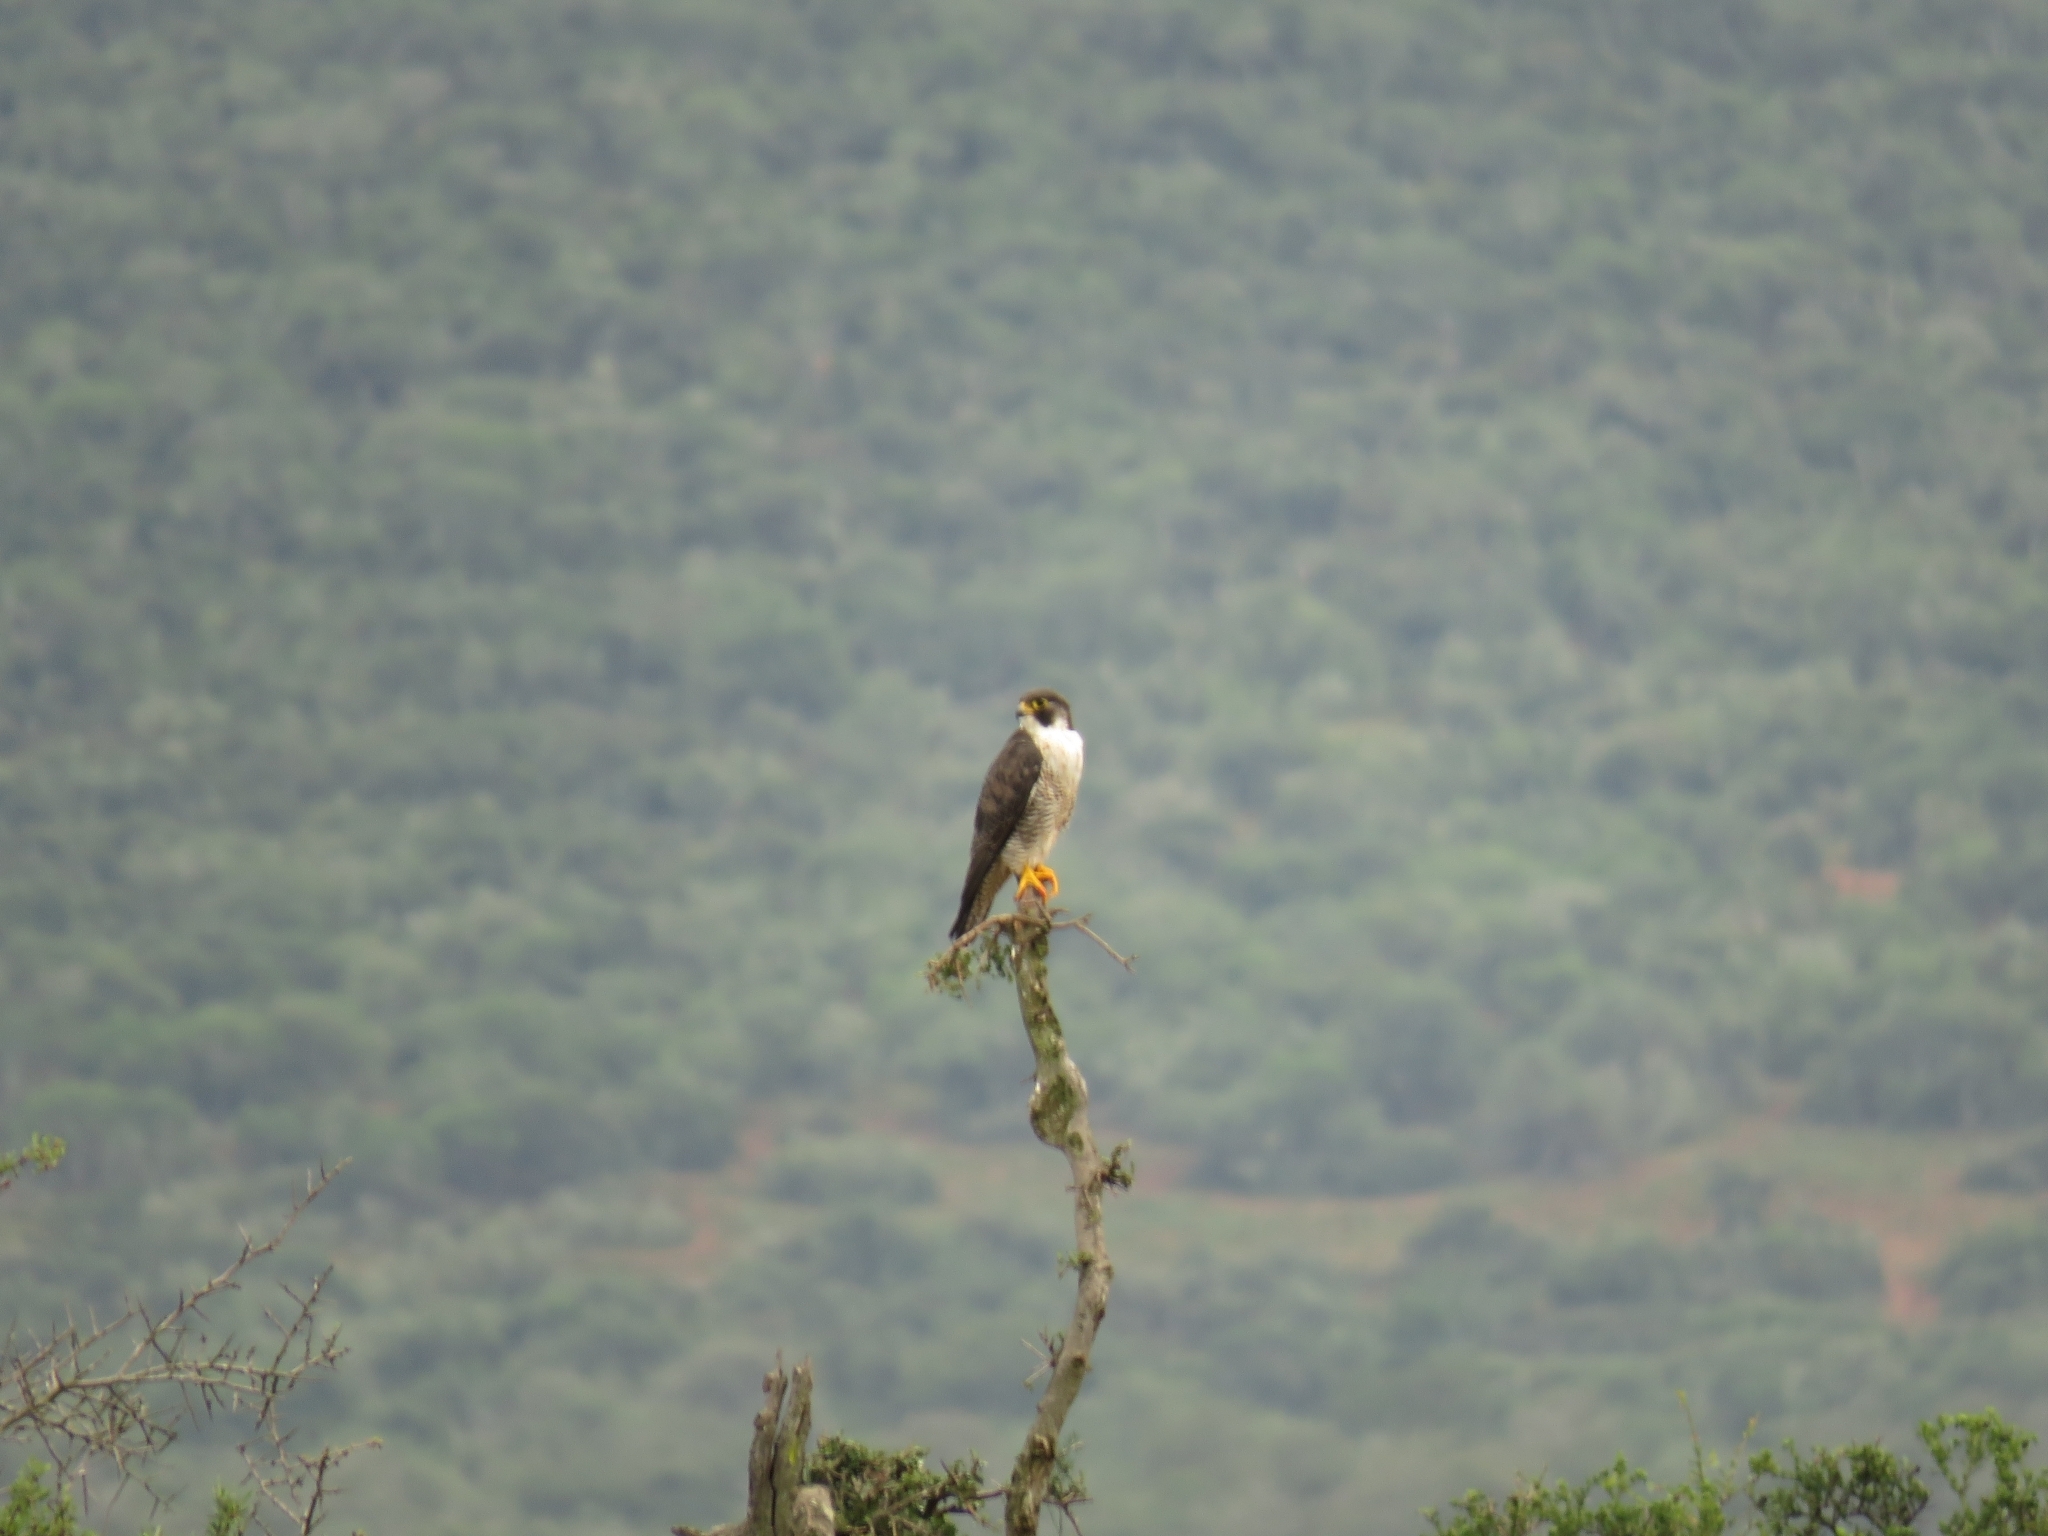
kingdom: Animalia
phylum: Chordata
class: Aves
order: Falconiformes
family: Falconidae
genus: Falco
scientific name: Falco peregrinus
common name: Peregrine falcon
